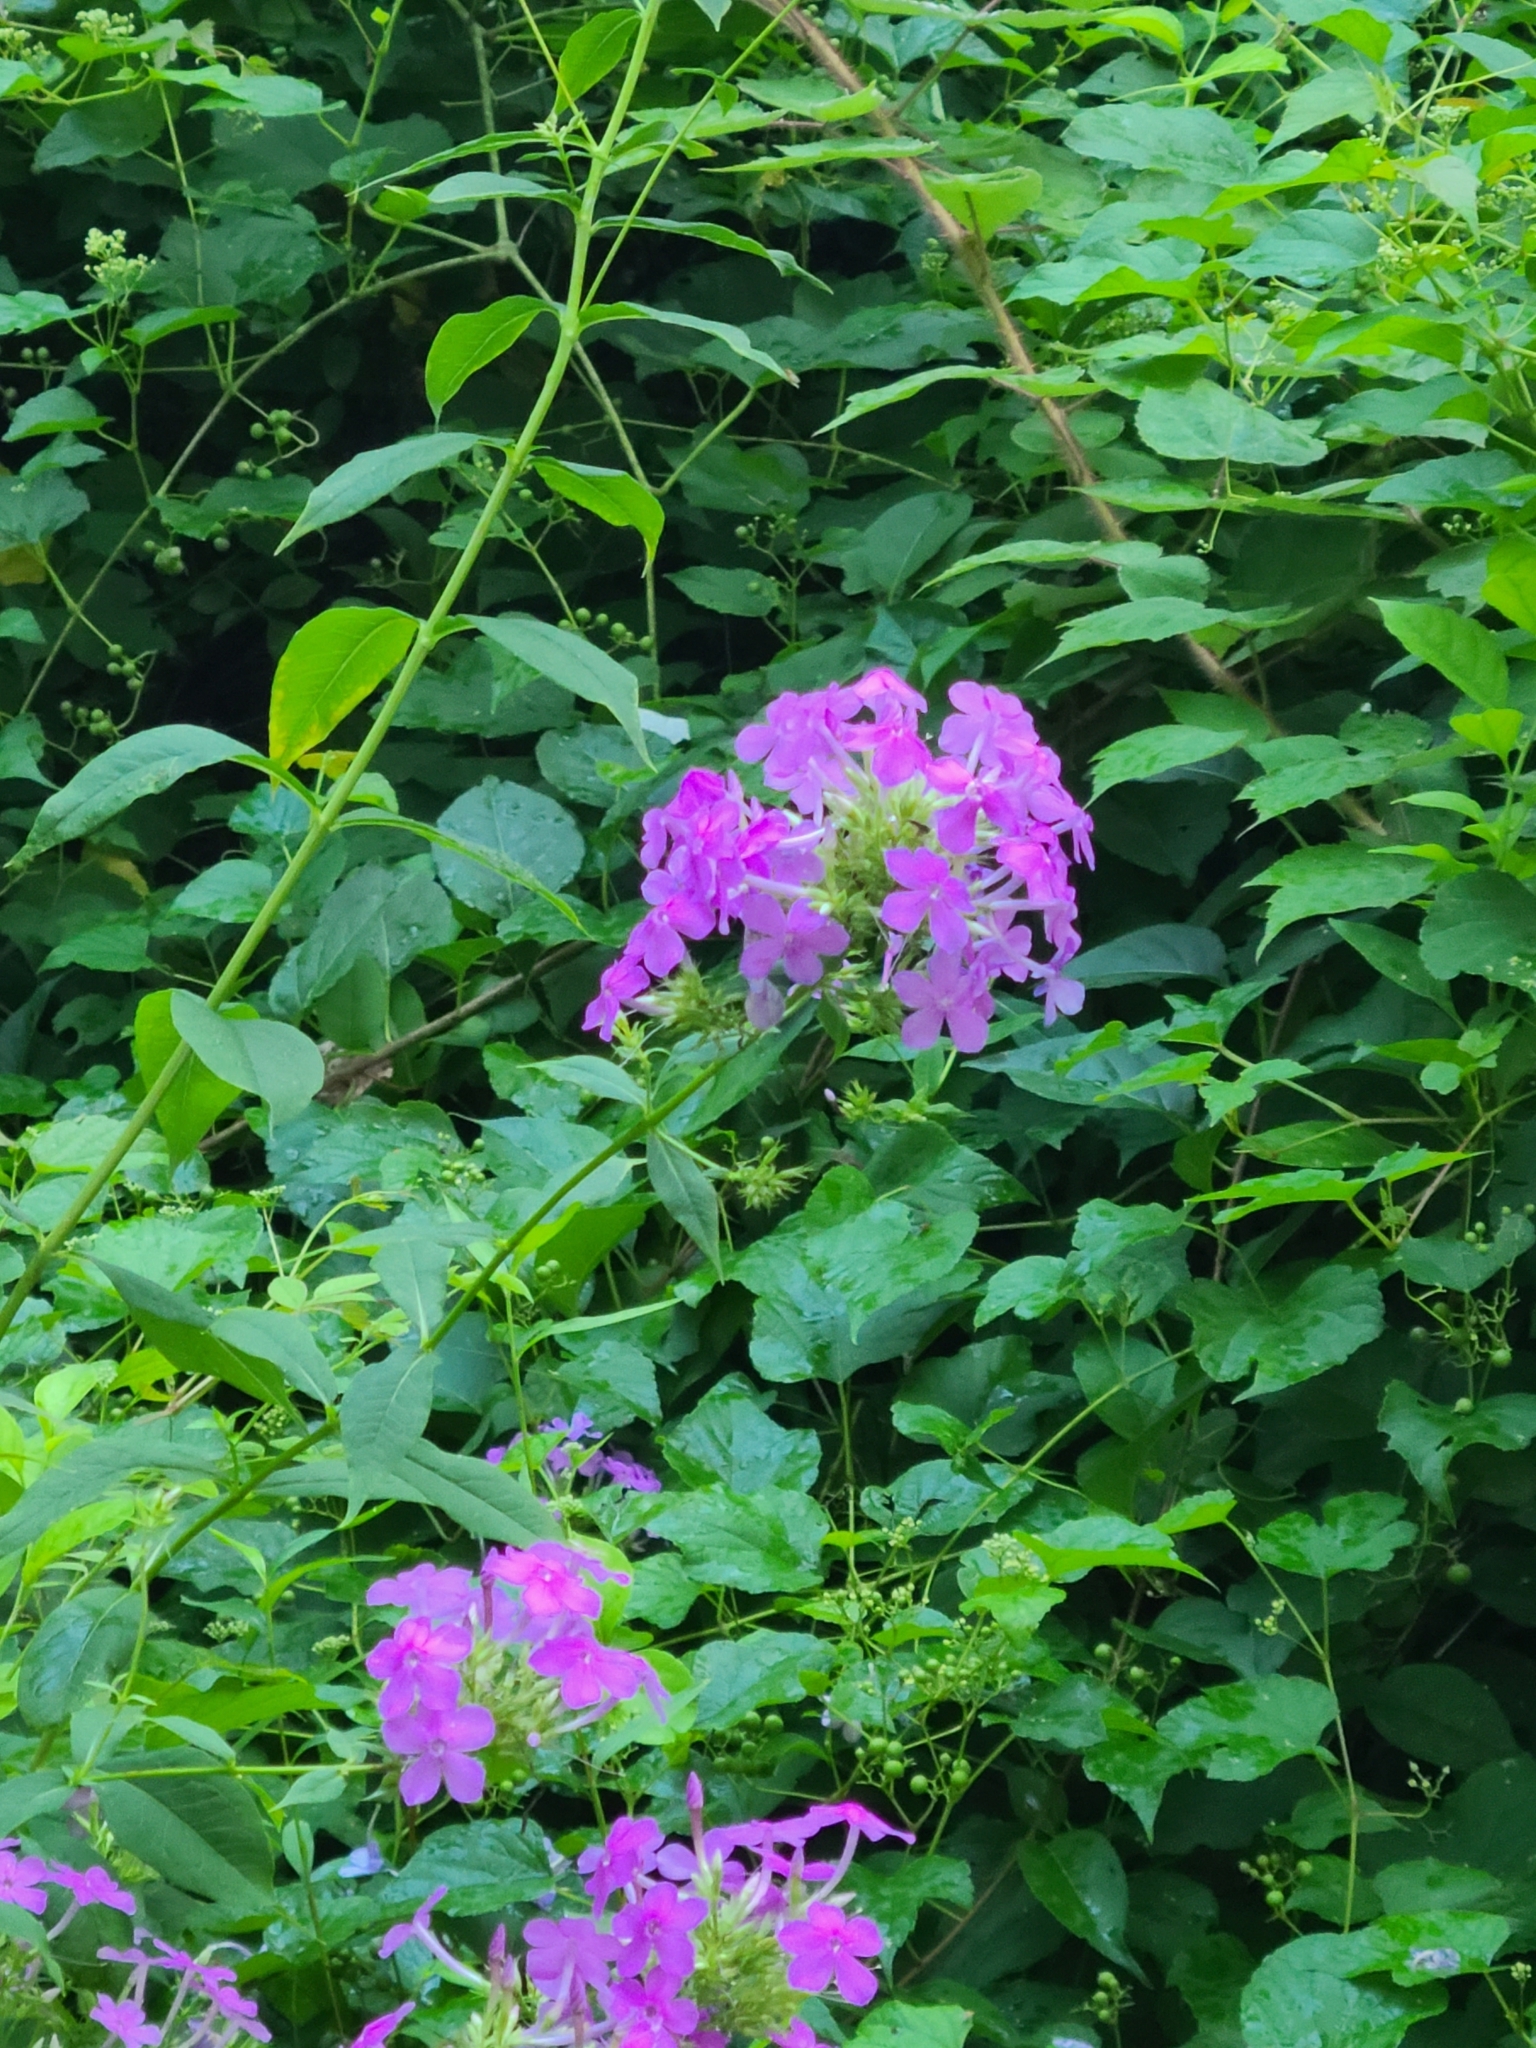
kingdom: Plantae
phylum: Tracheophyta
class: Magnoliopsida
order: Ericales
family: Polemoniaceae
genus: Phlox
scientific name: Phlox paniculata
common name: Fall phlox
